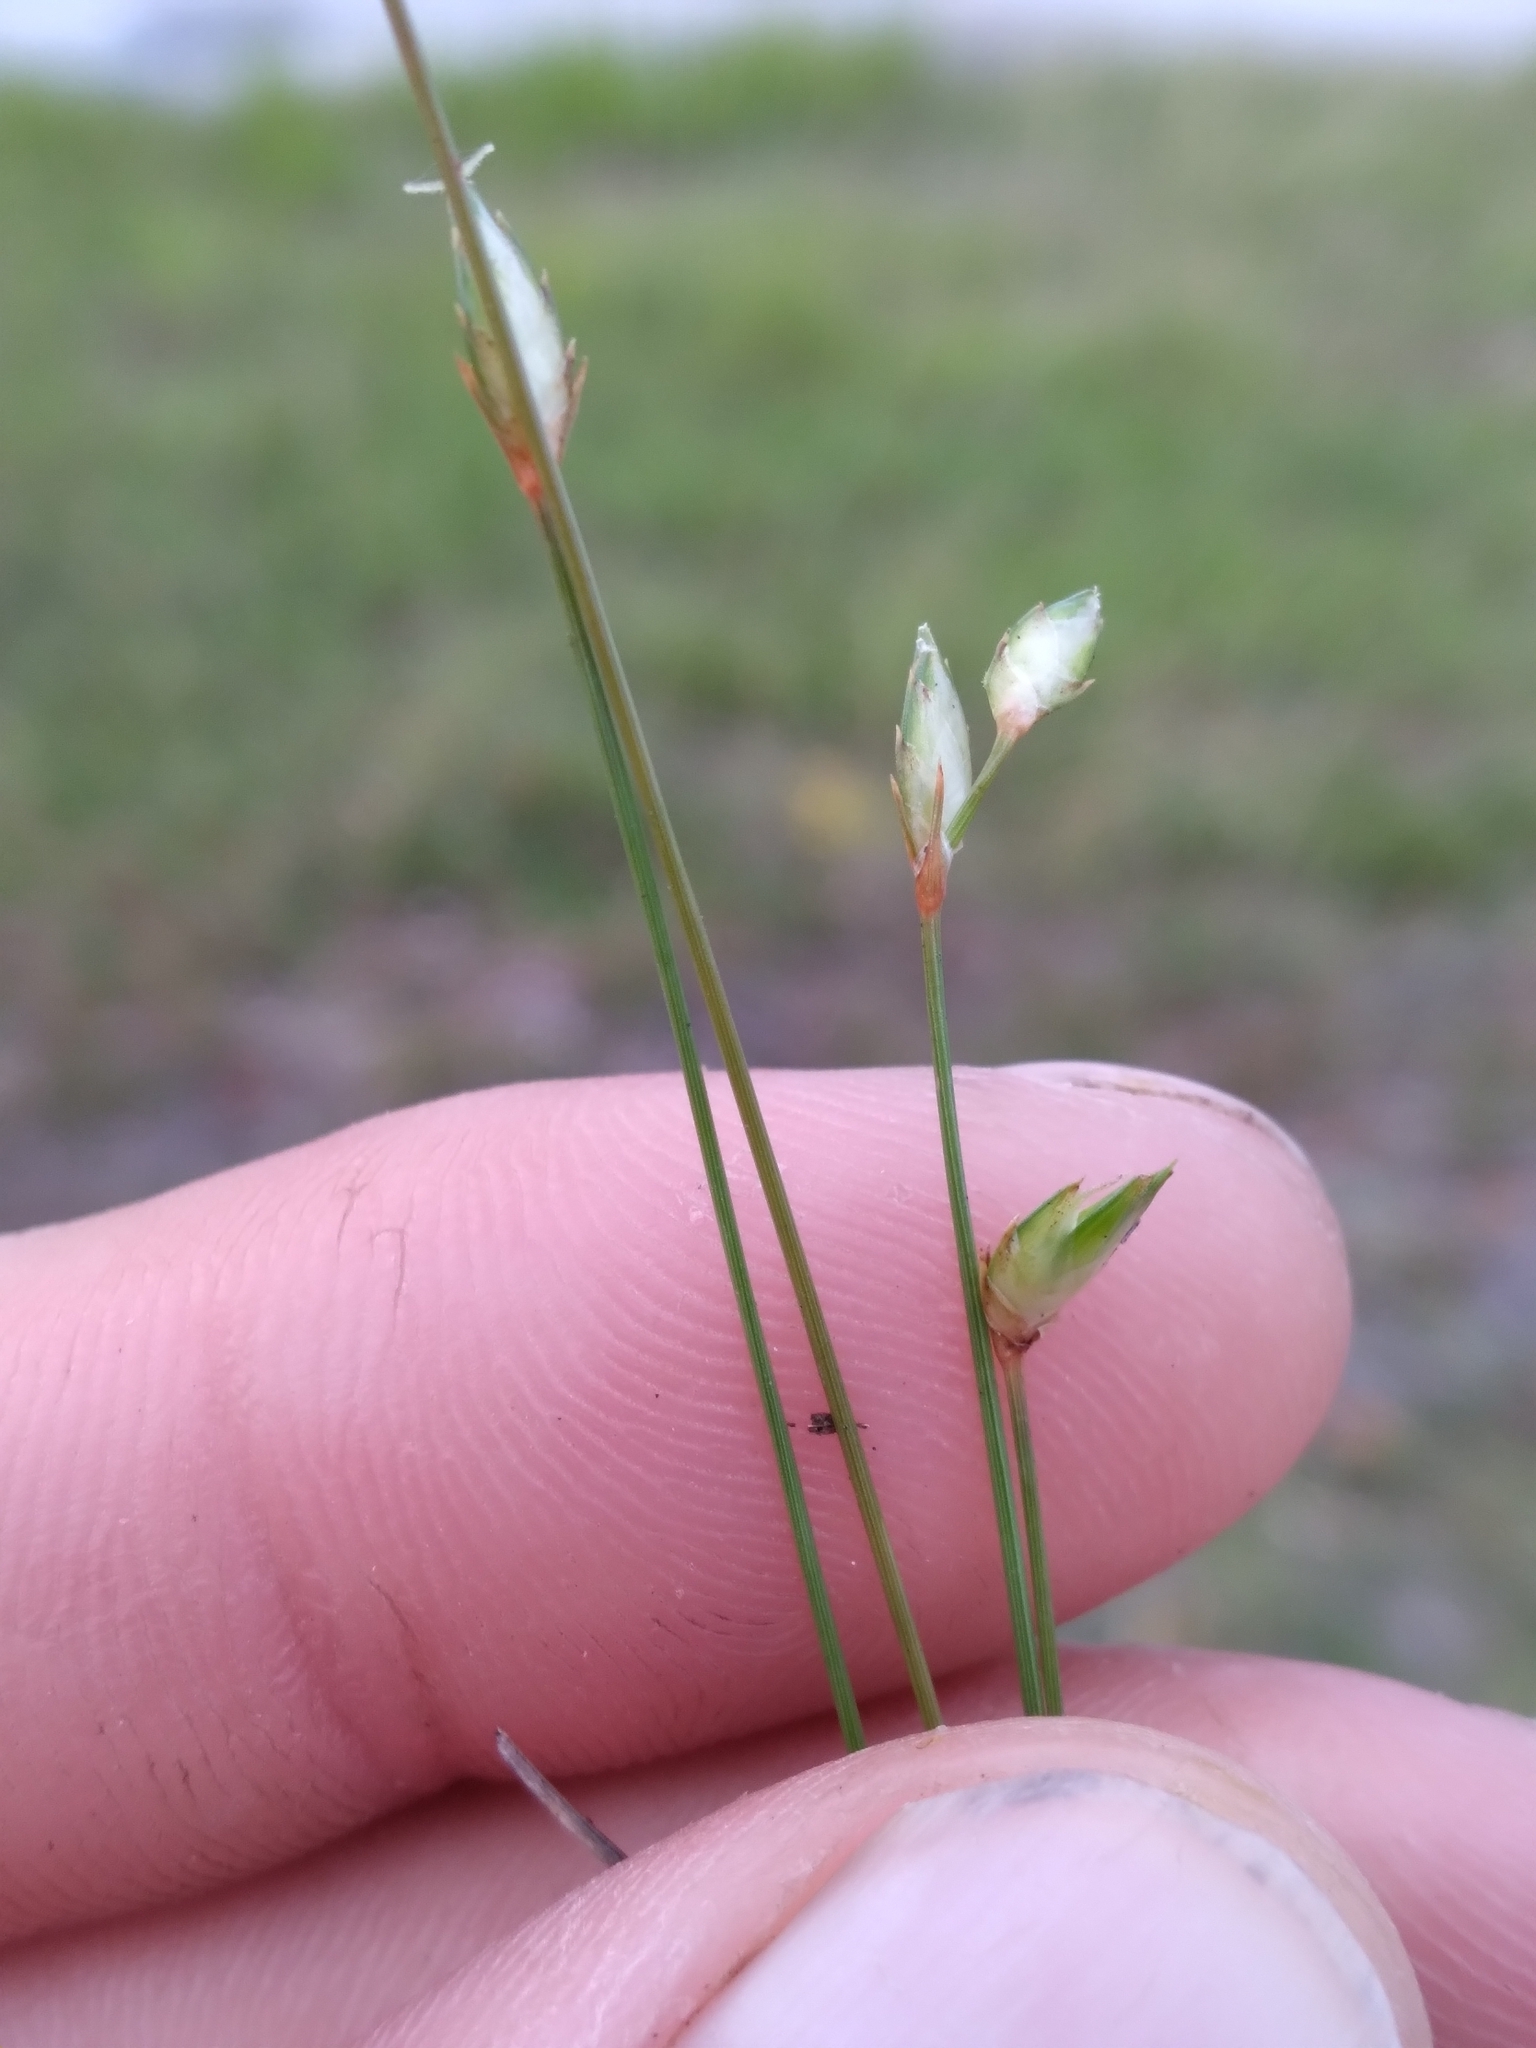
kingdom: Plantae
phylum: Tracheophyta
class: Liliopsida
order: Poales
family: Cyperaceae
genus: Abildgaardia
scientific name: Abildgaardia ovata
